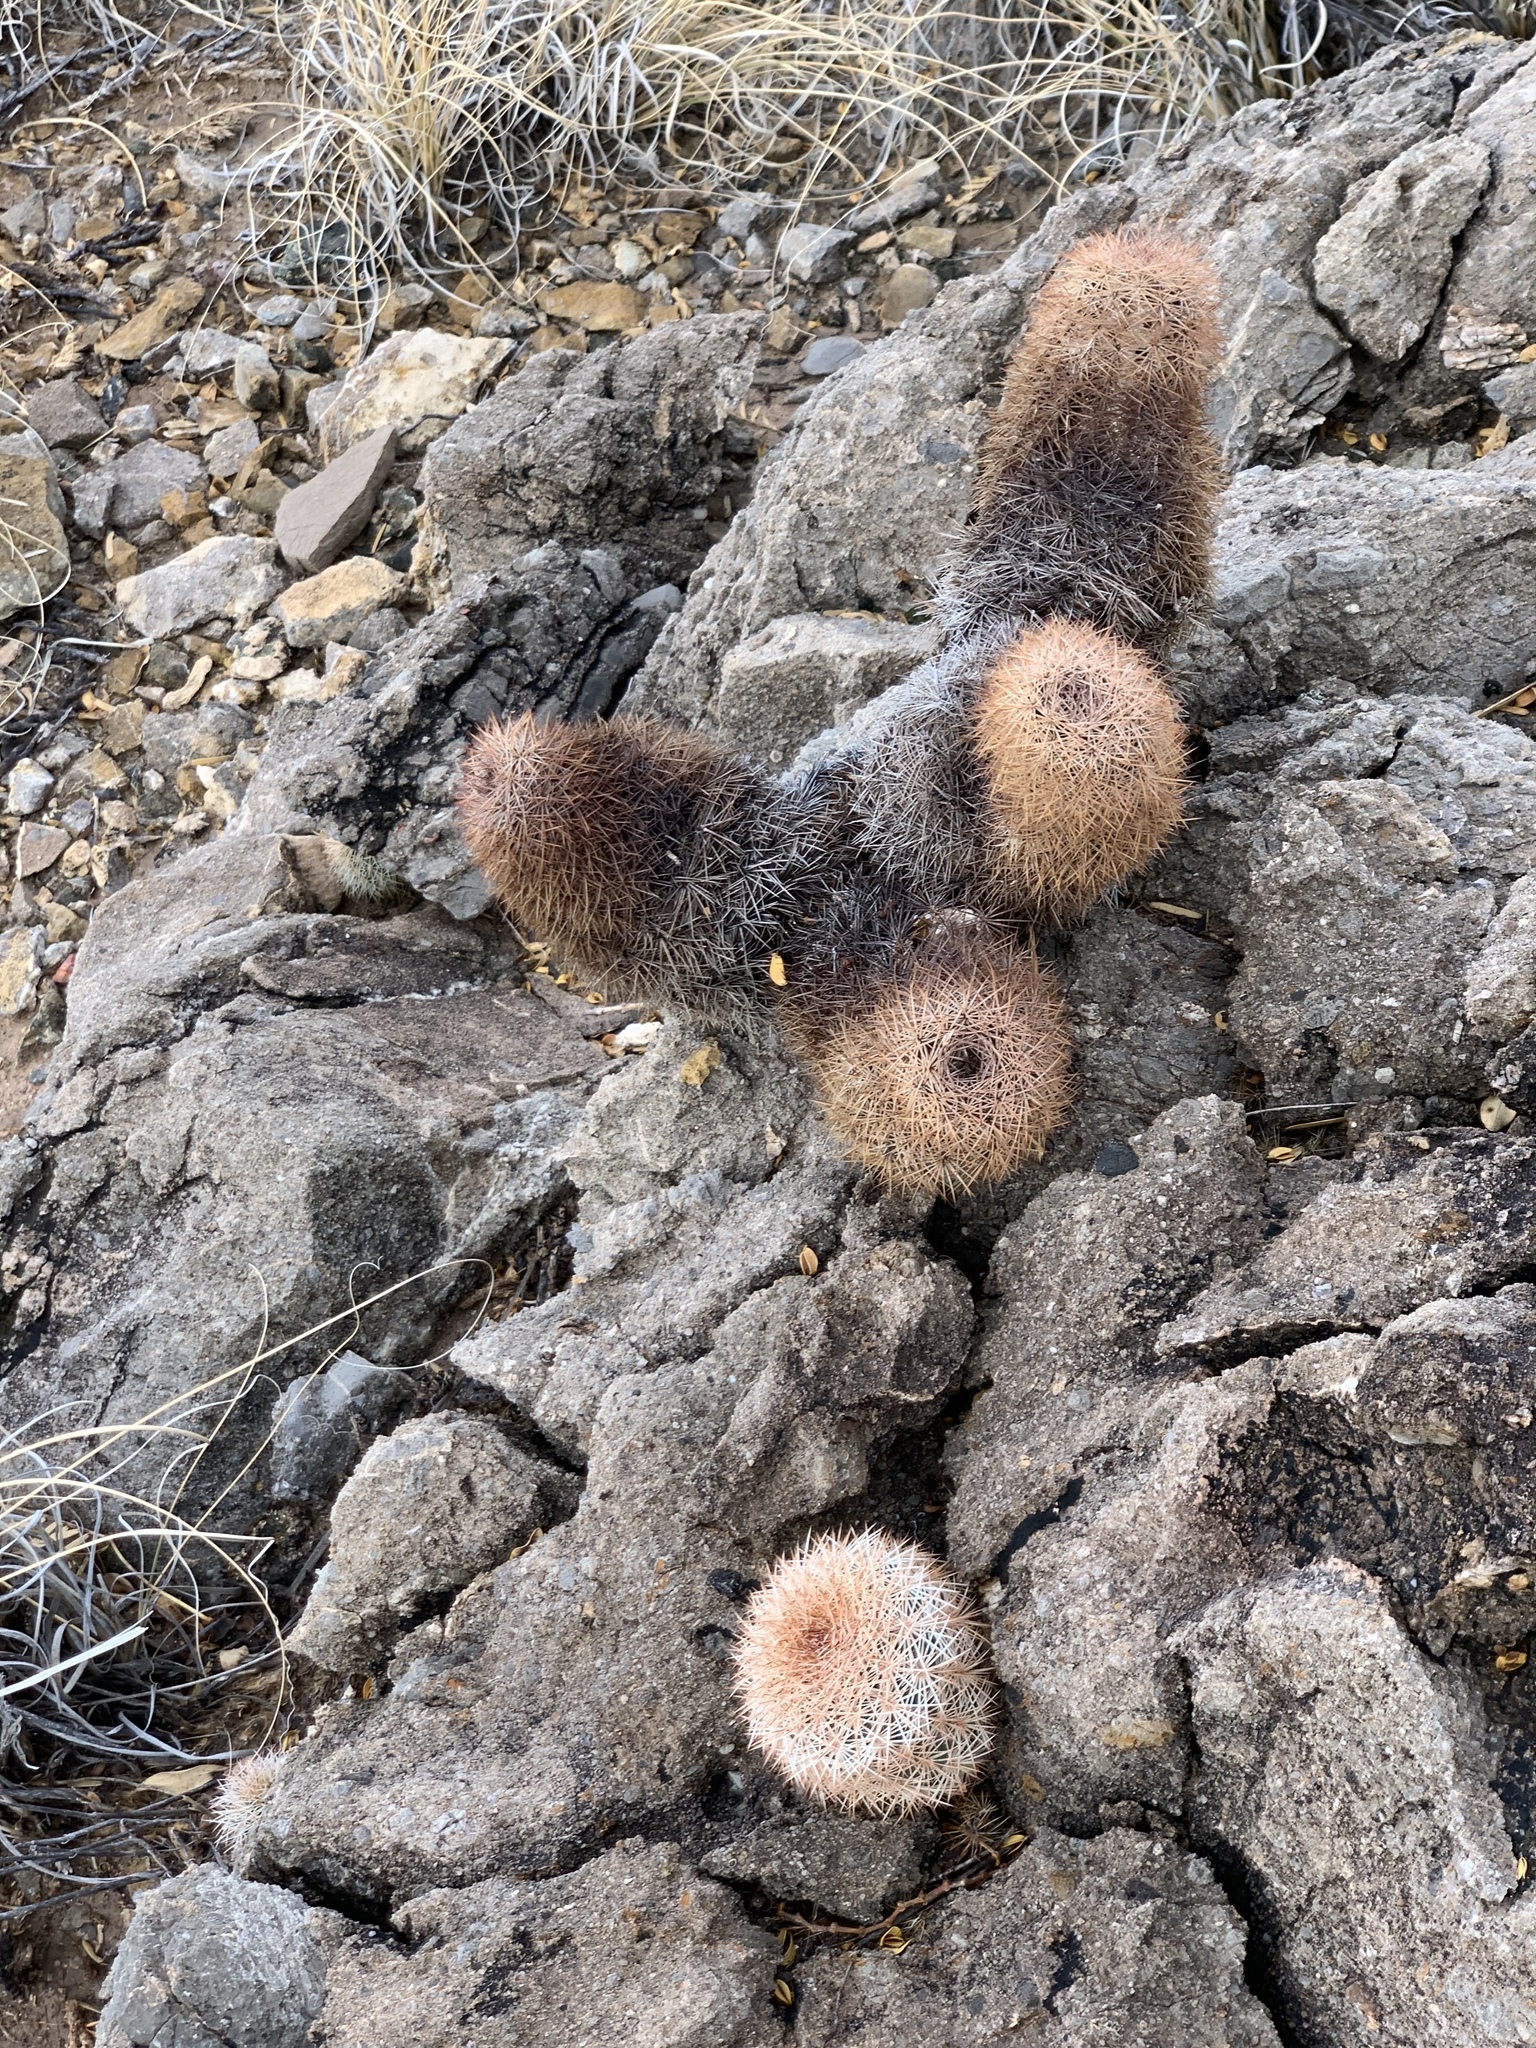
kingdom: Plantae
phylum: Tracheophyta
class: Magnoliopsida
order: Caryophyllales
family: Cactaceae
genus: Echinocereus
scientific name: Echinocereus dasyacanthus
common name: Spiny hedgehog cactus
